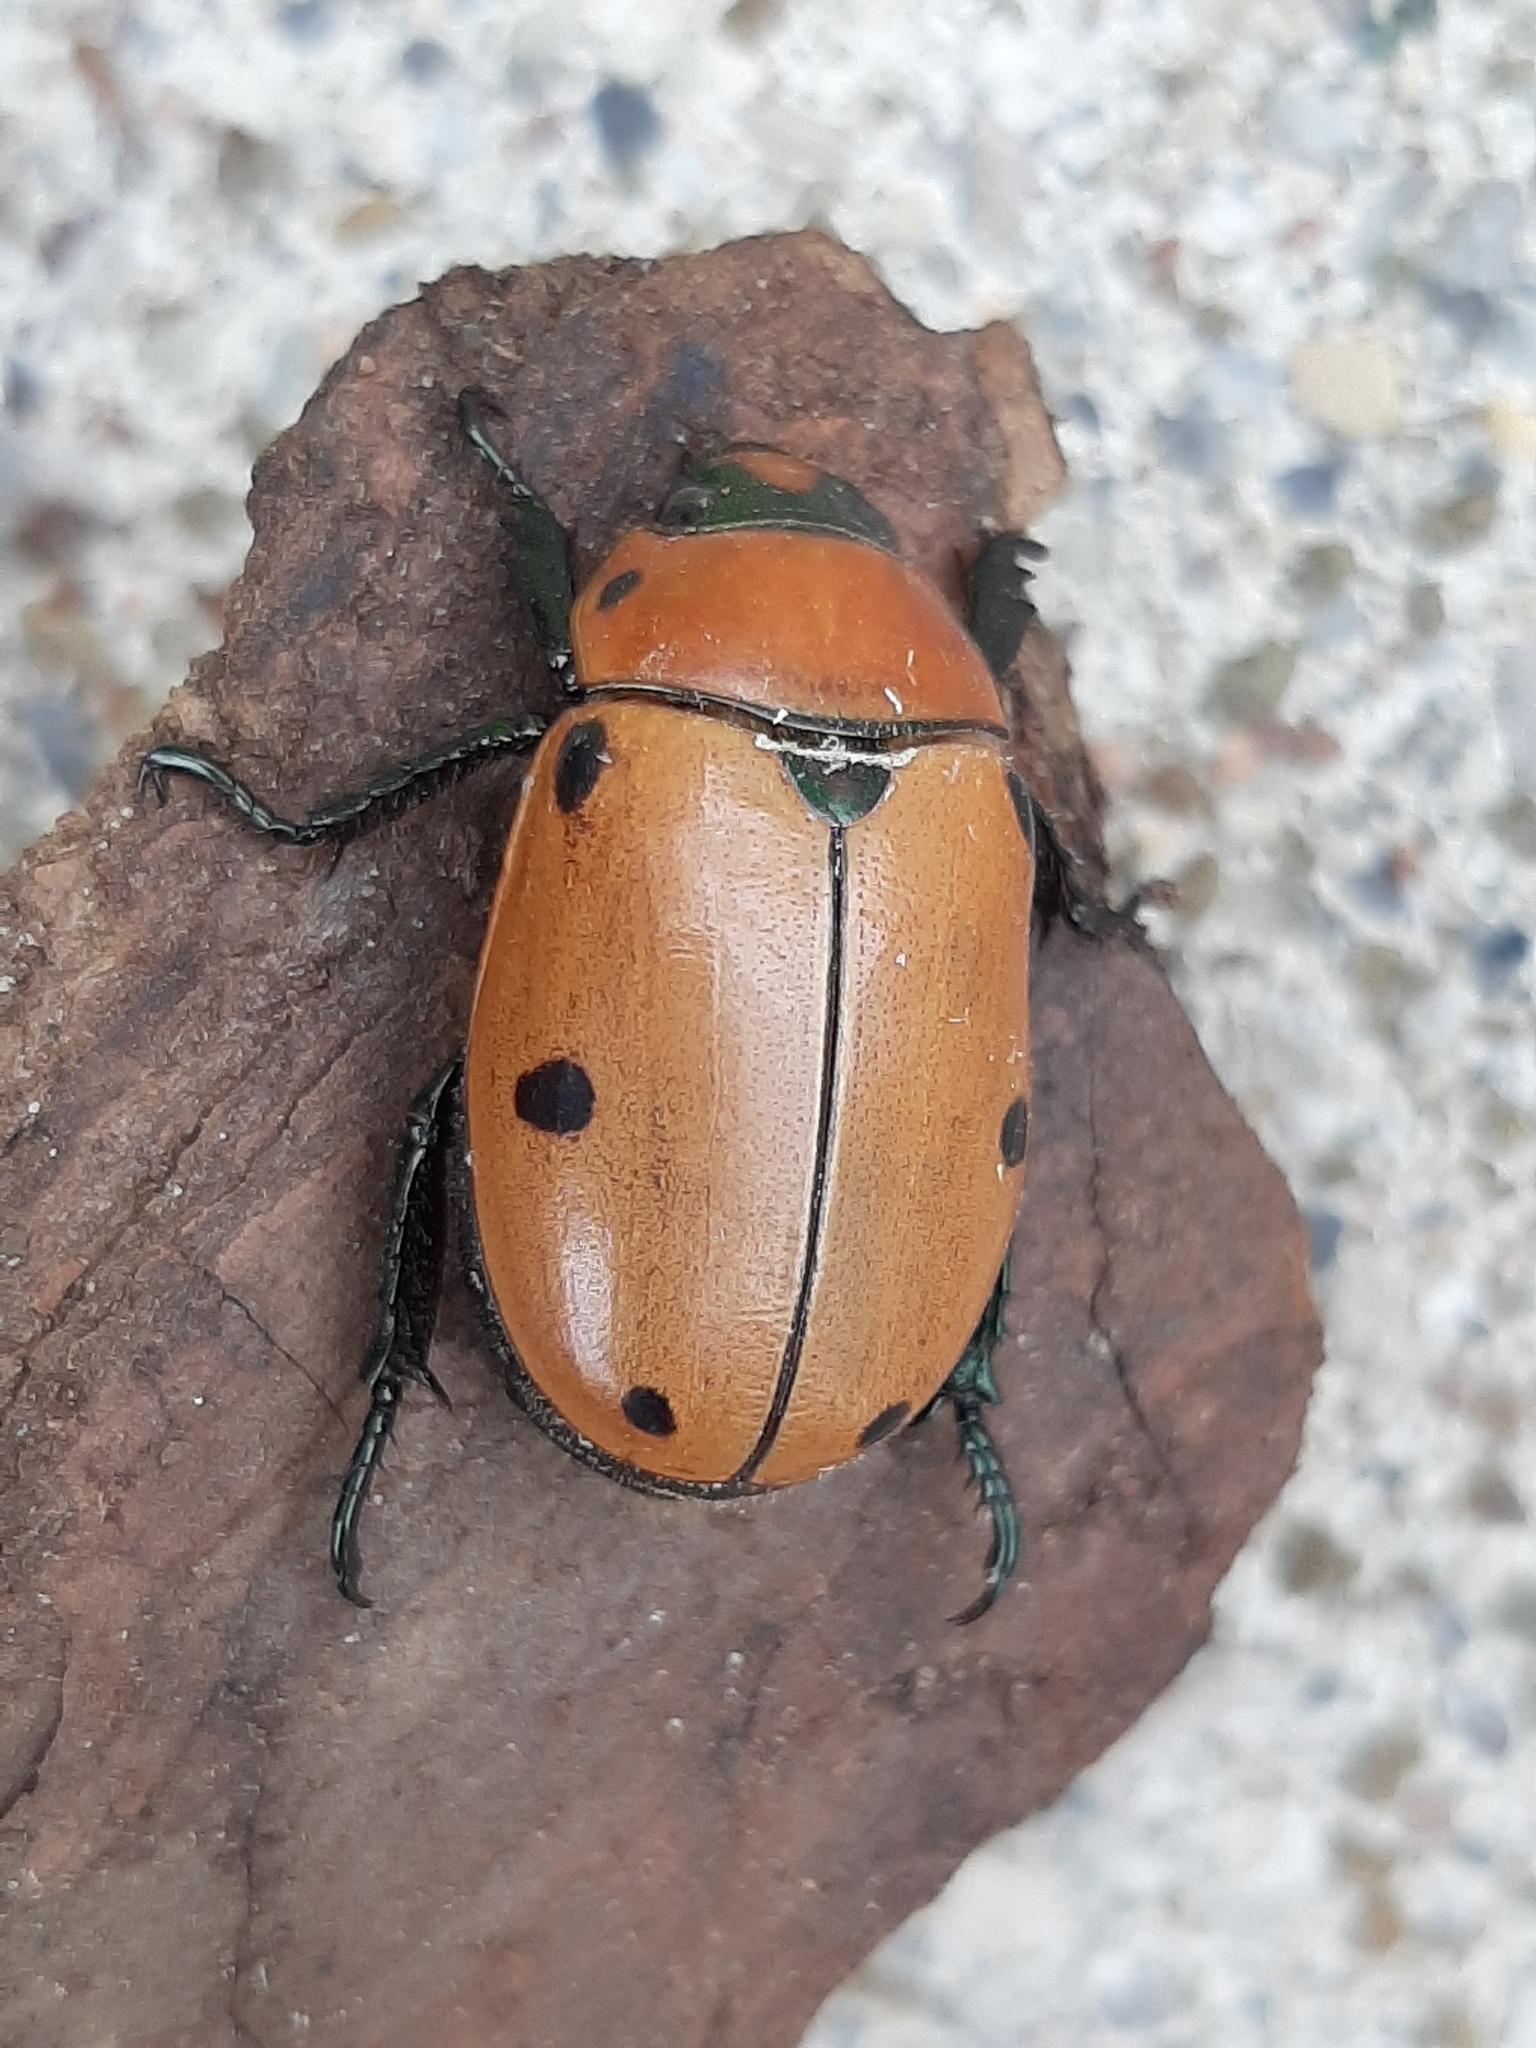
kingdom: Animalia
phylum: Arthropoda
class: Insecta
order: Coleoptera
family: Scarabaeidae
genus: Pelidnota
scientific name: Pelidnota punctata
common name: Grapevine beetle
